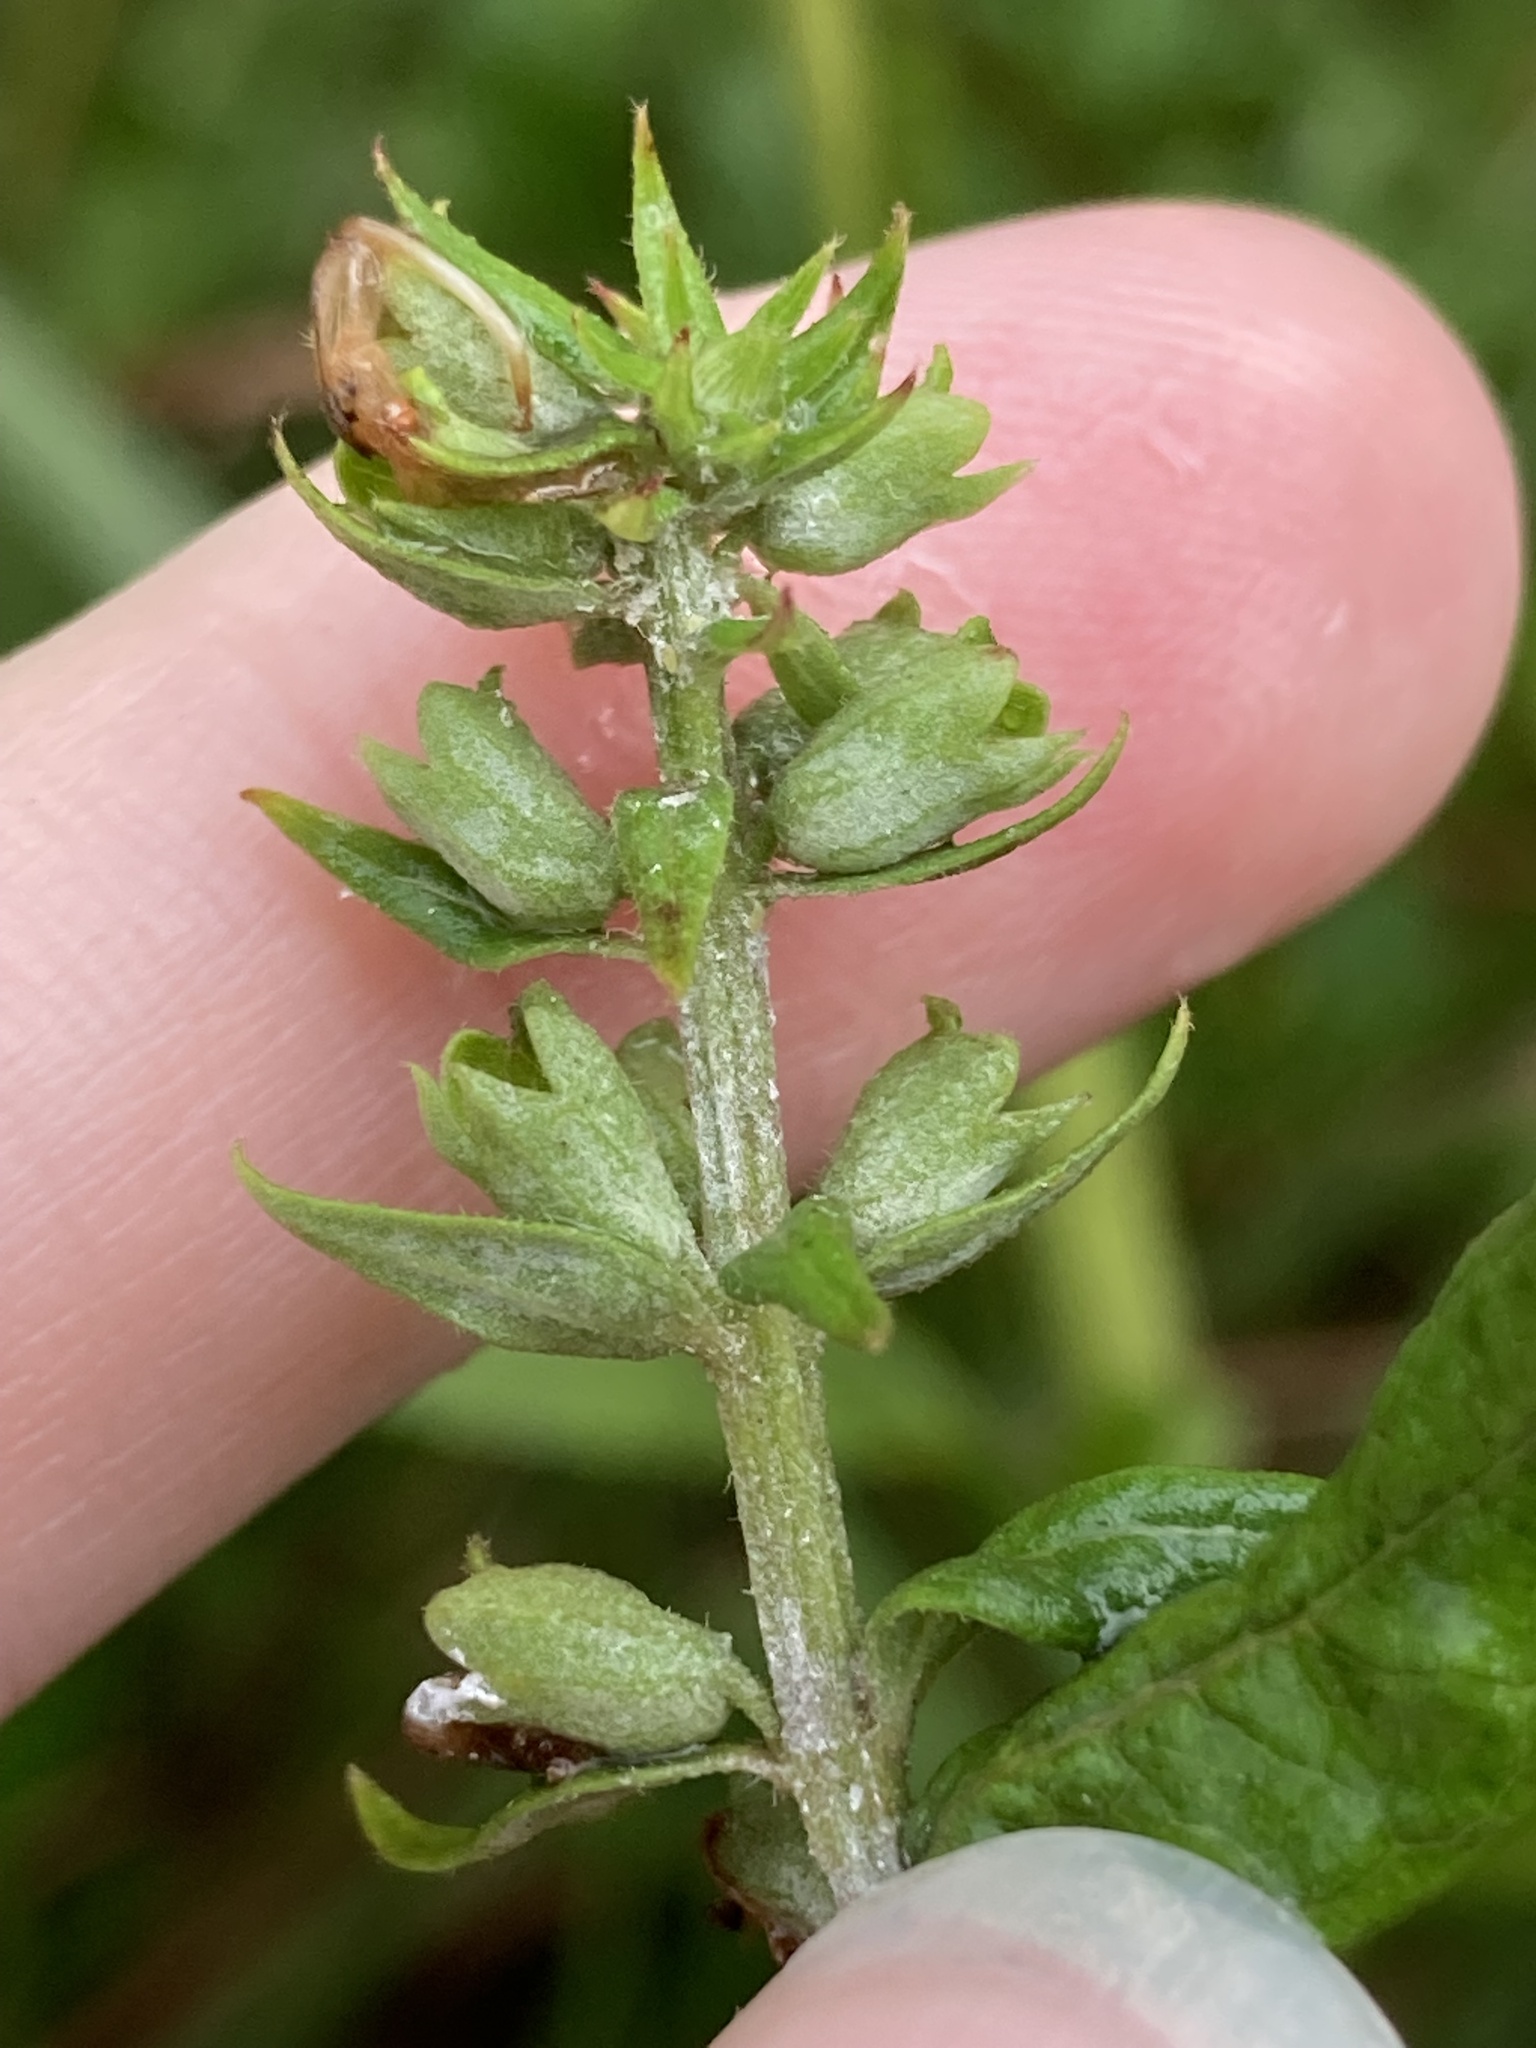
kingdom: Plantae
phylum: Tracheophyta
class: Magnoliopsida
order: Lamiales
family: Lamiaceae
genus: Teucrium
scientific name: Teucrium canadense
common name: American germander
